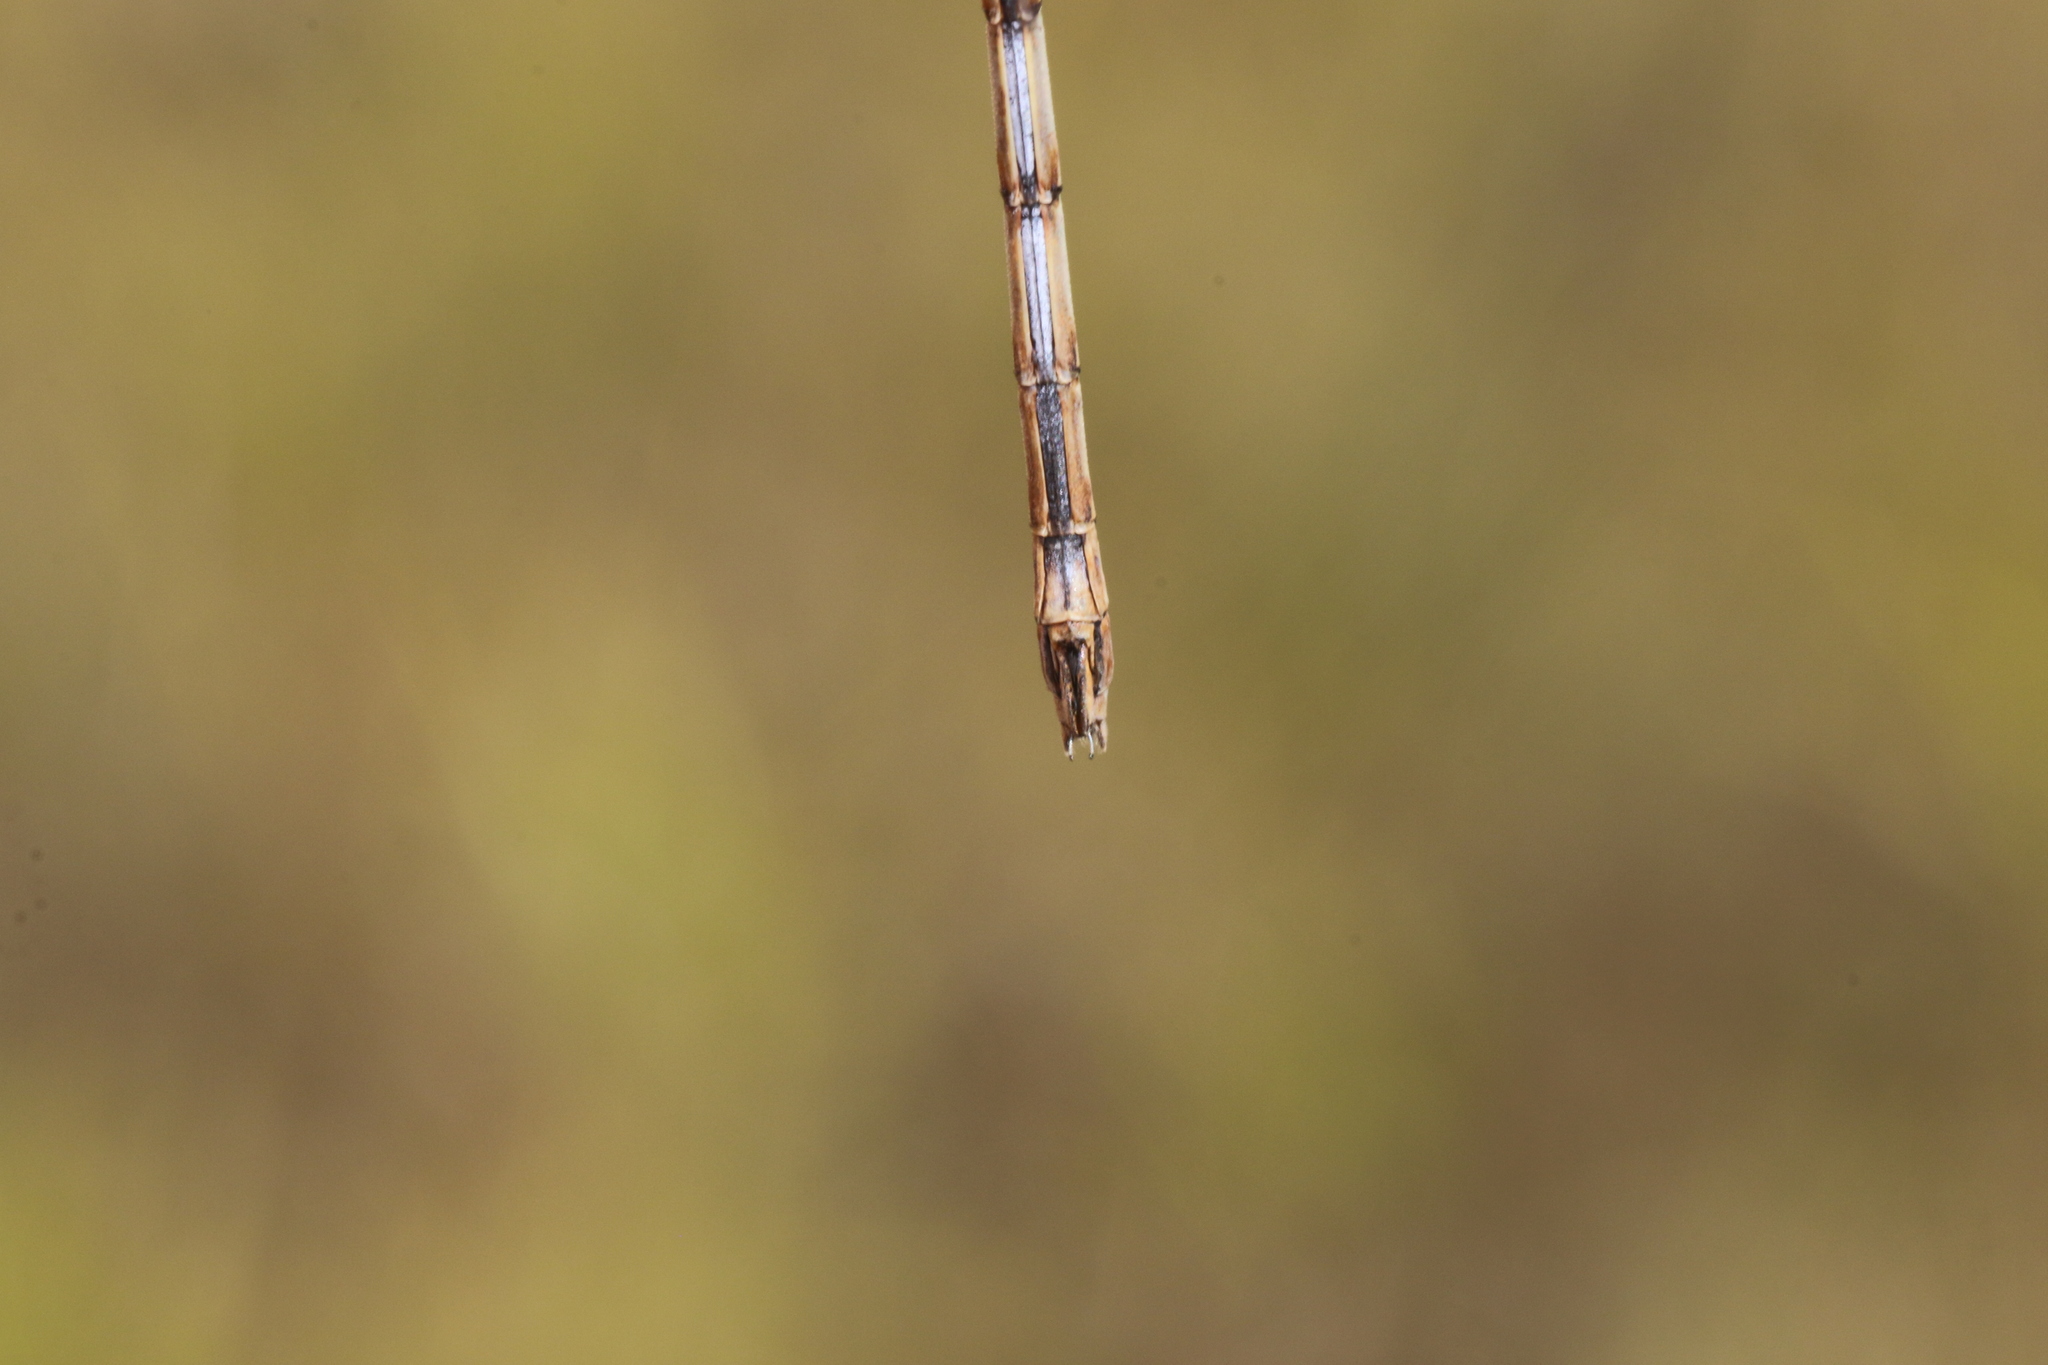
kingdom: Animalia
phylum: Arthropoda
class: Insecta
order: Odonata
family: Lestidae
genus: Lestes
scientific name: Lestes unguiculatus
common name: Lyre-tipped spreadwing
